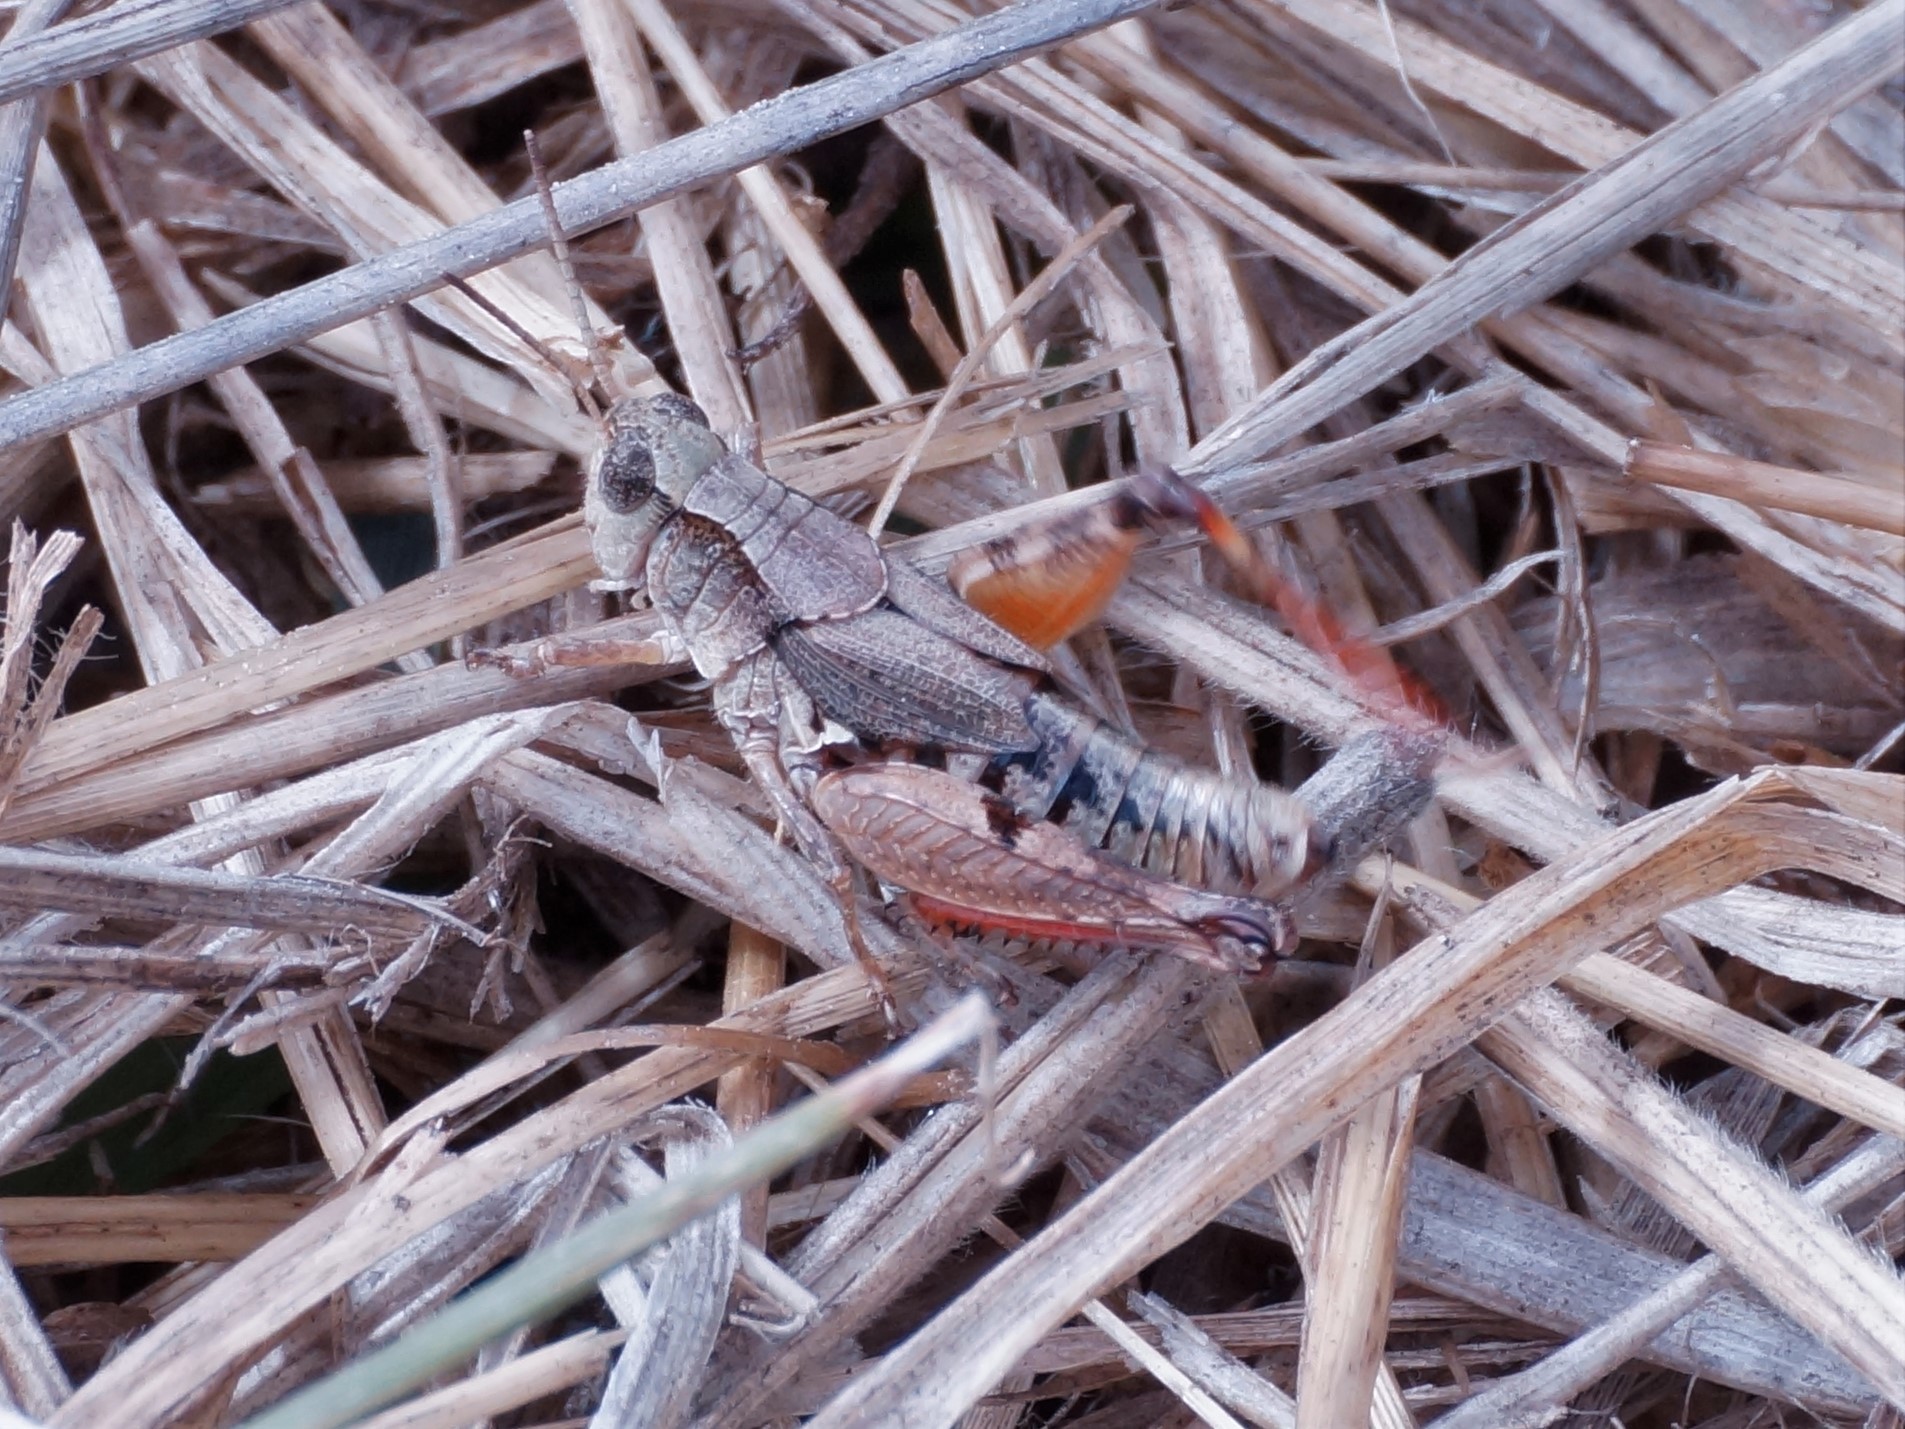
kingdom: Animalia
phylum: Arthropoda
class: Insecta
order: Orthoptera
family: Acrididae
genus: Phaulacridium
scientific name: Phaulacridium vittatum
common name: Wingless grasshopper
